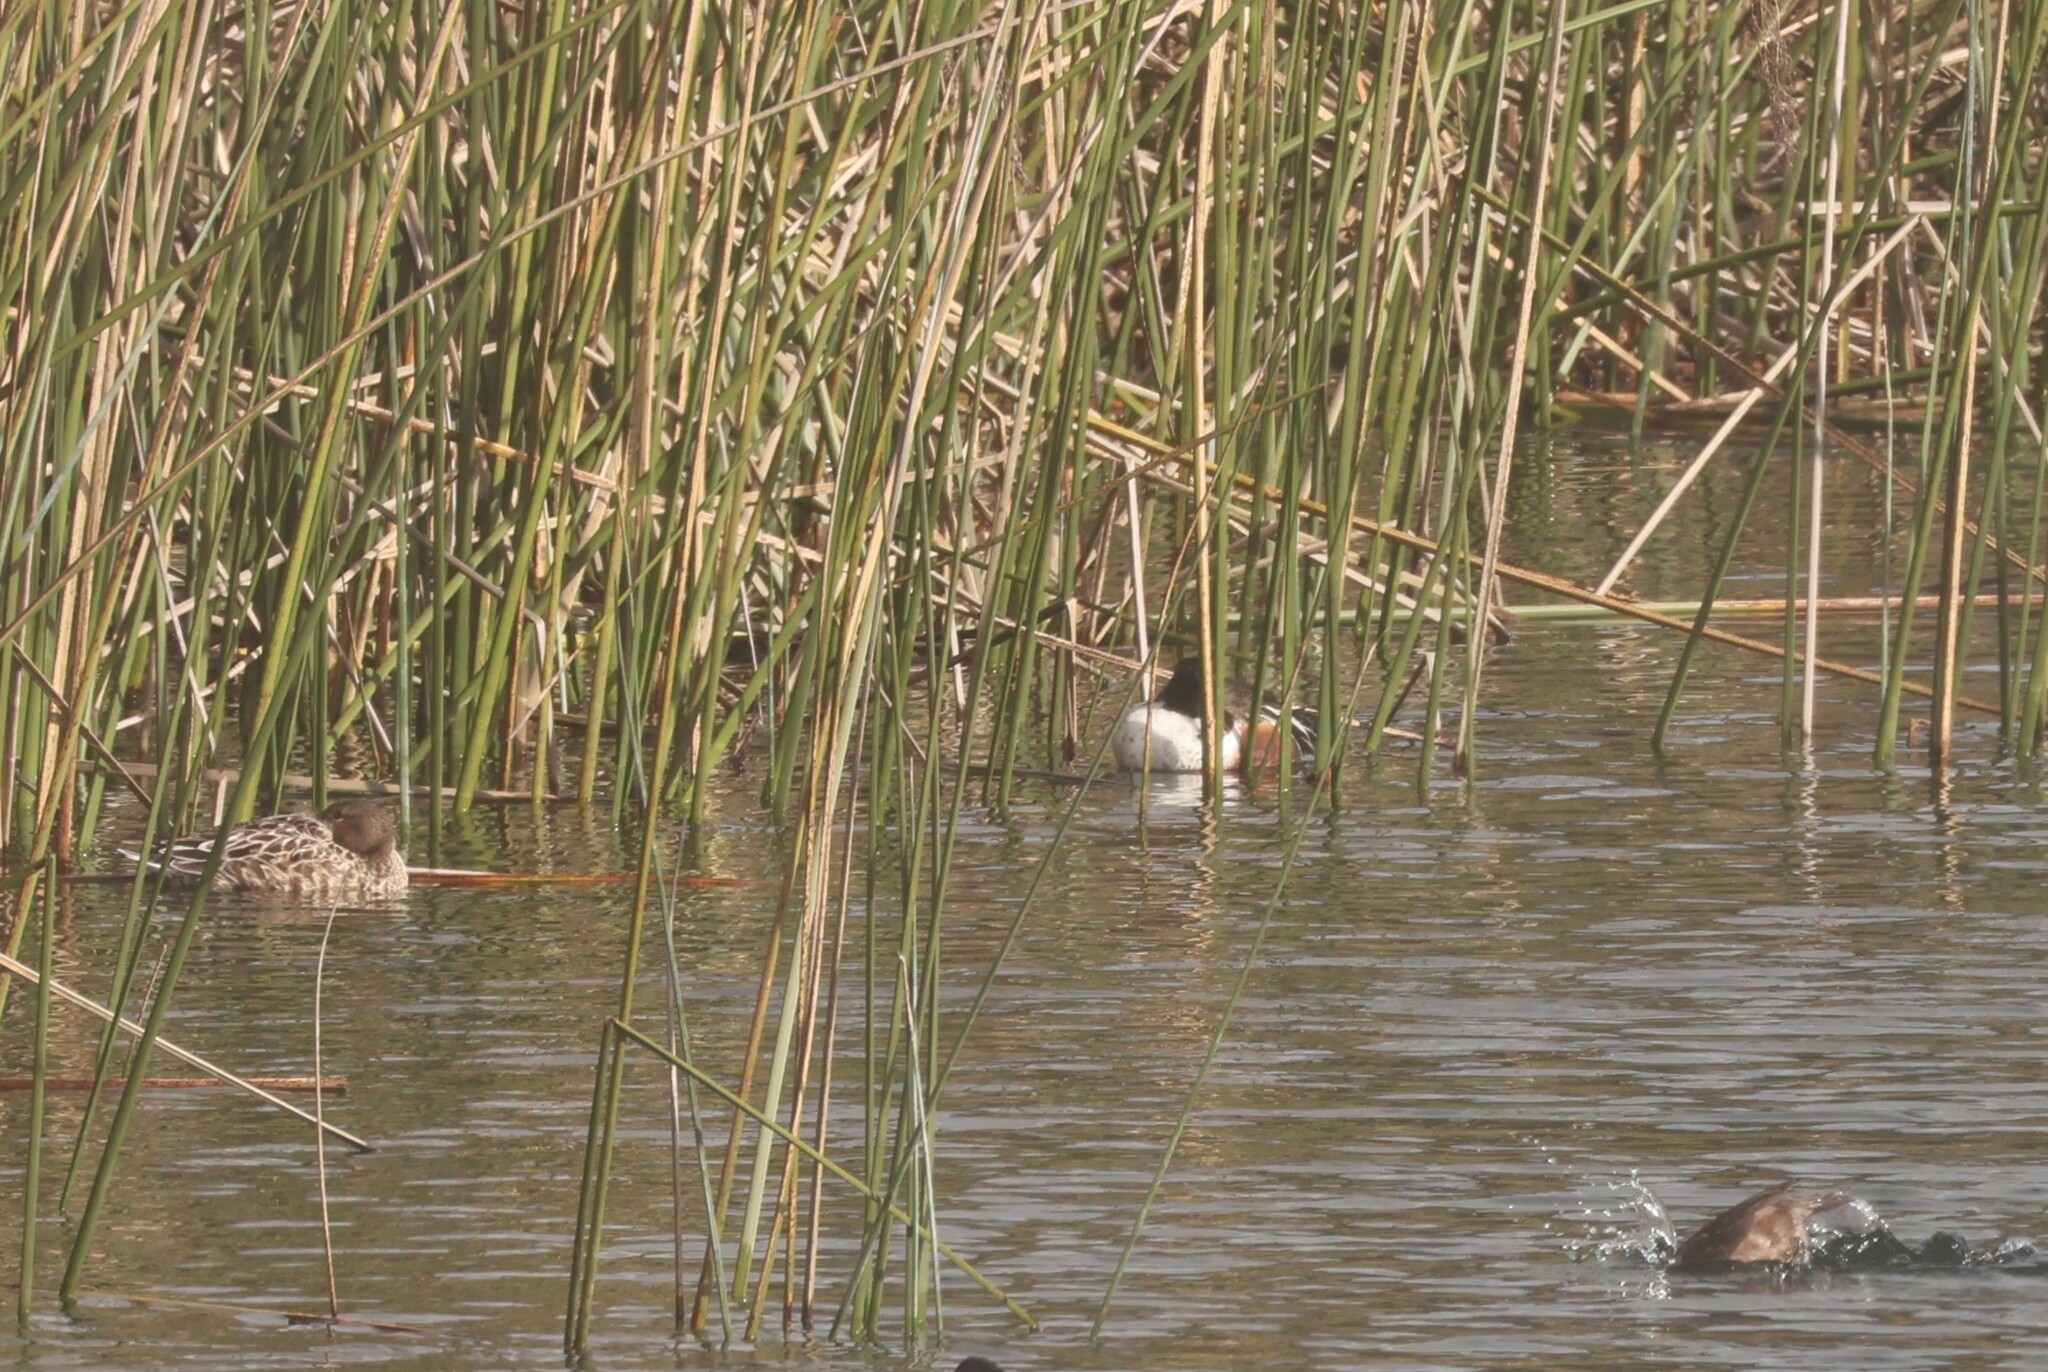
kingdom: Animalia
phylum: Chordata
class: Aves
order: Anseriformes
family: Anatidae
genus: Spatula
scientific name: Spatula clypeata
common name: Northern shoveler
